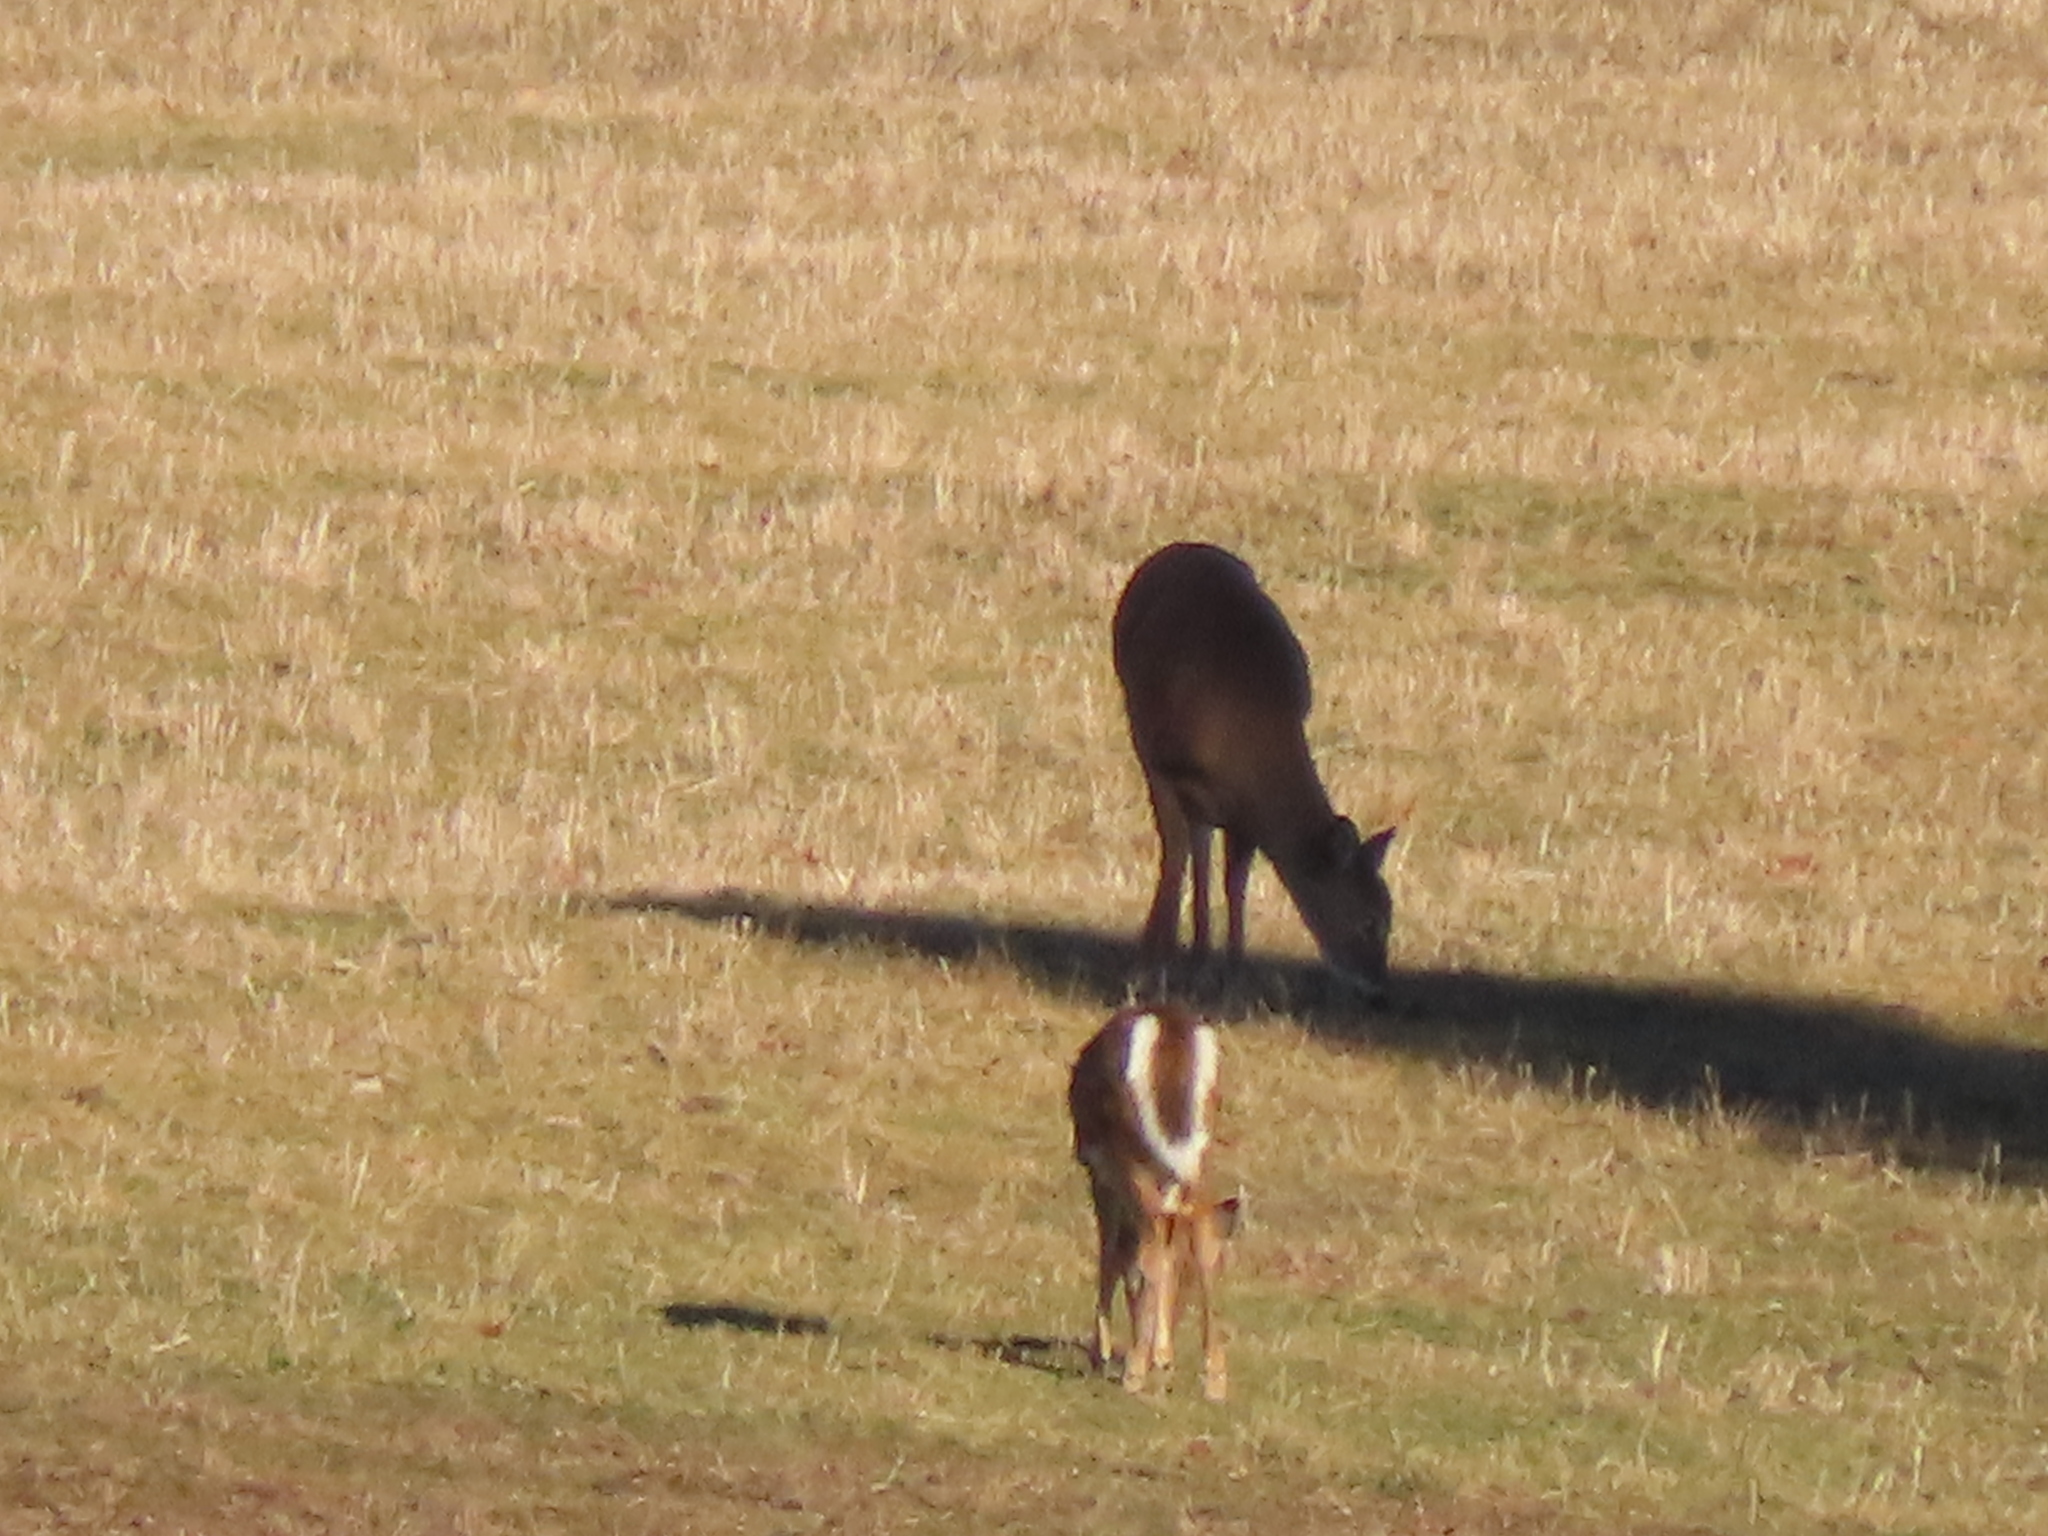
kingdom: Animalia
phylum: Chordata
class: Mammalia
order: Artiodactyla
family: Cervidae
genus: Odocoileus
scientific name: Odocoileus virginianus
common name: White-tailed deer
